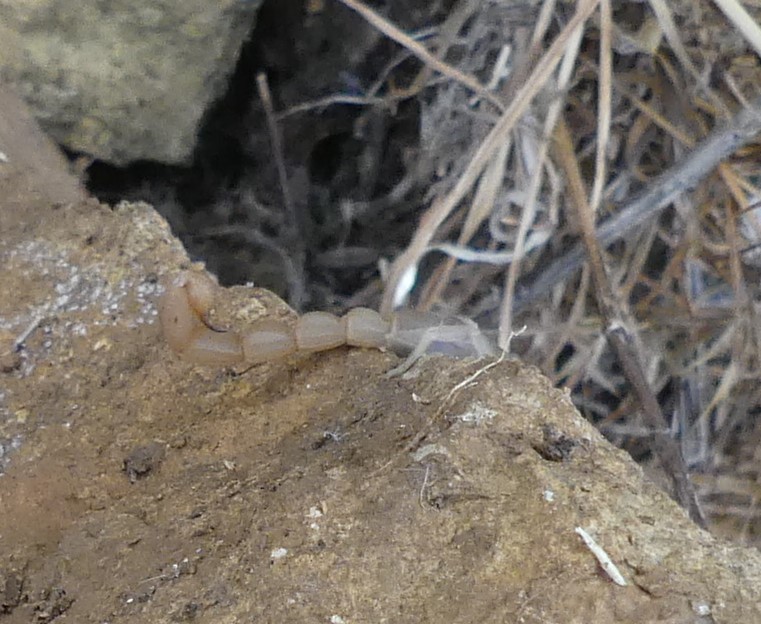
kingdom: Animalia
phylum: Arthropoda
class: Arachnida
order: Scorpiones
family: Buthidae
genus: Aegaeobuthus
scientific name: Aegaeobuthus nigrocinctus
